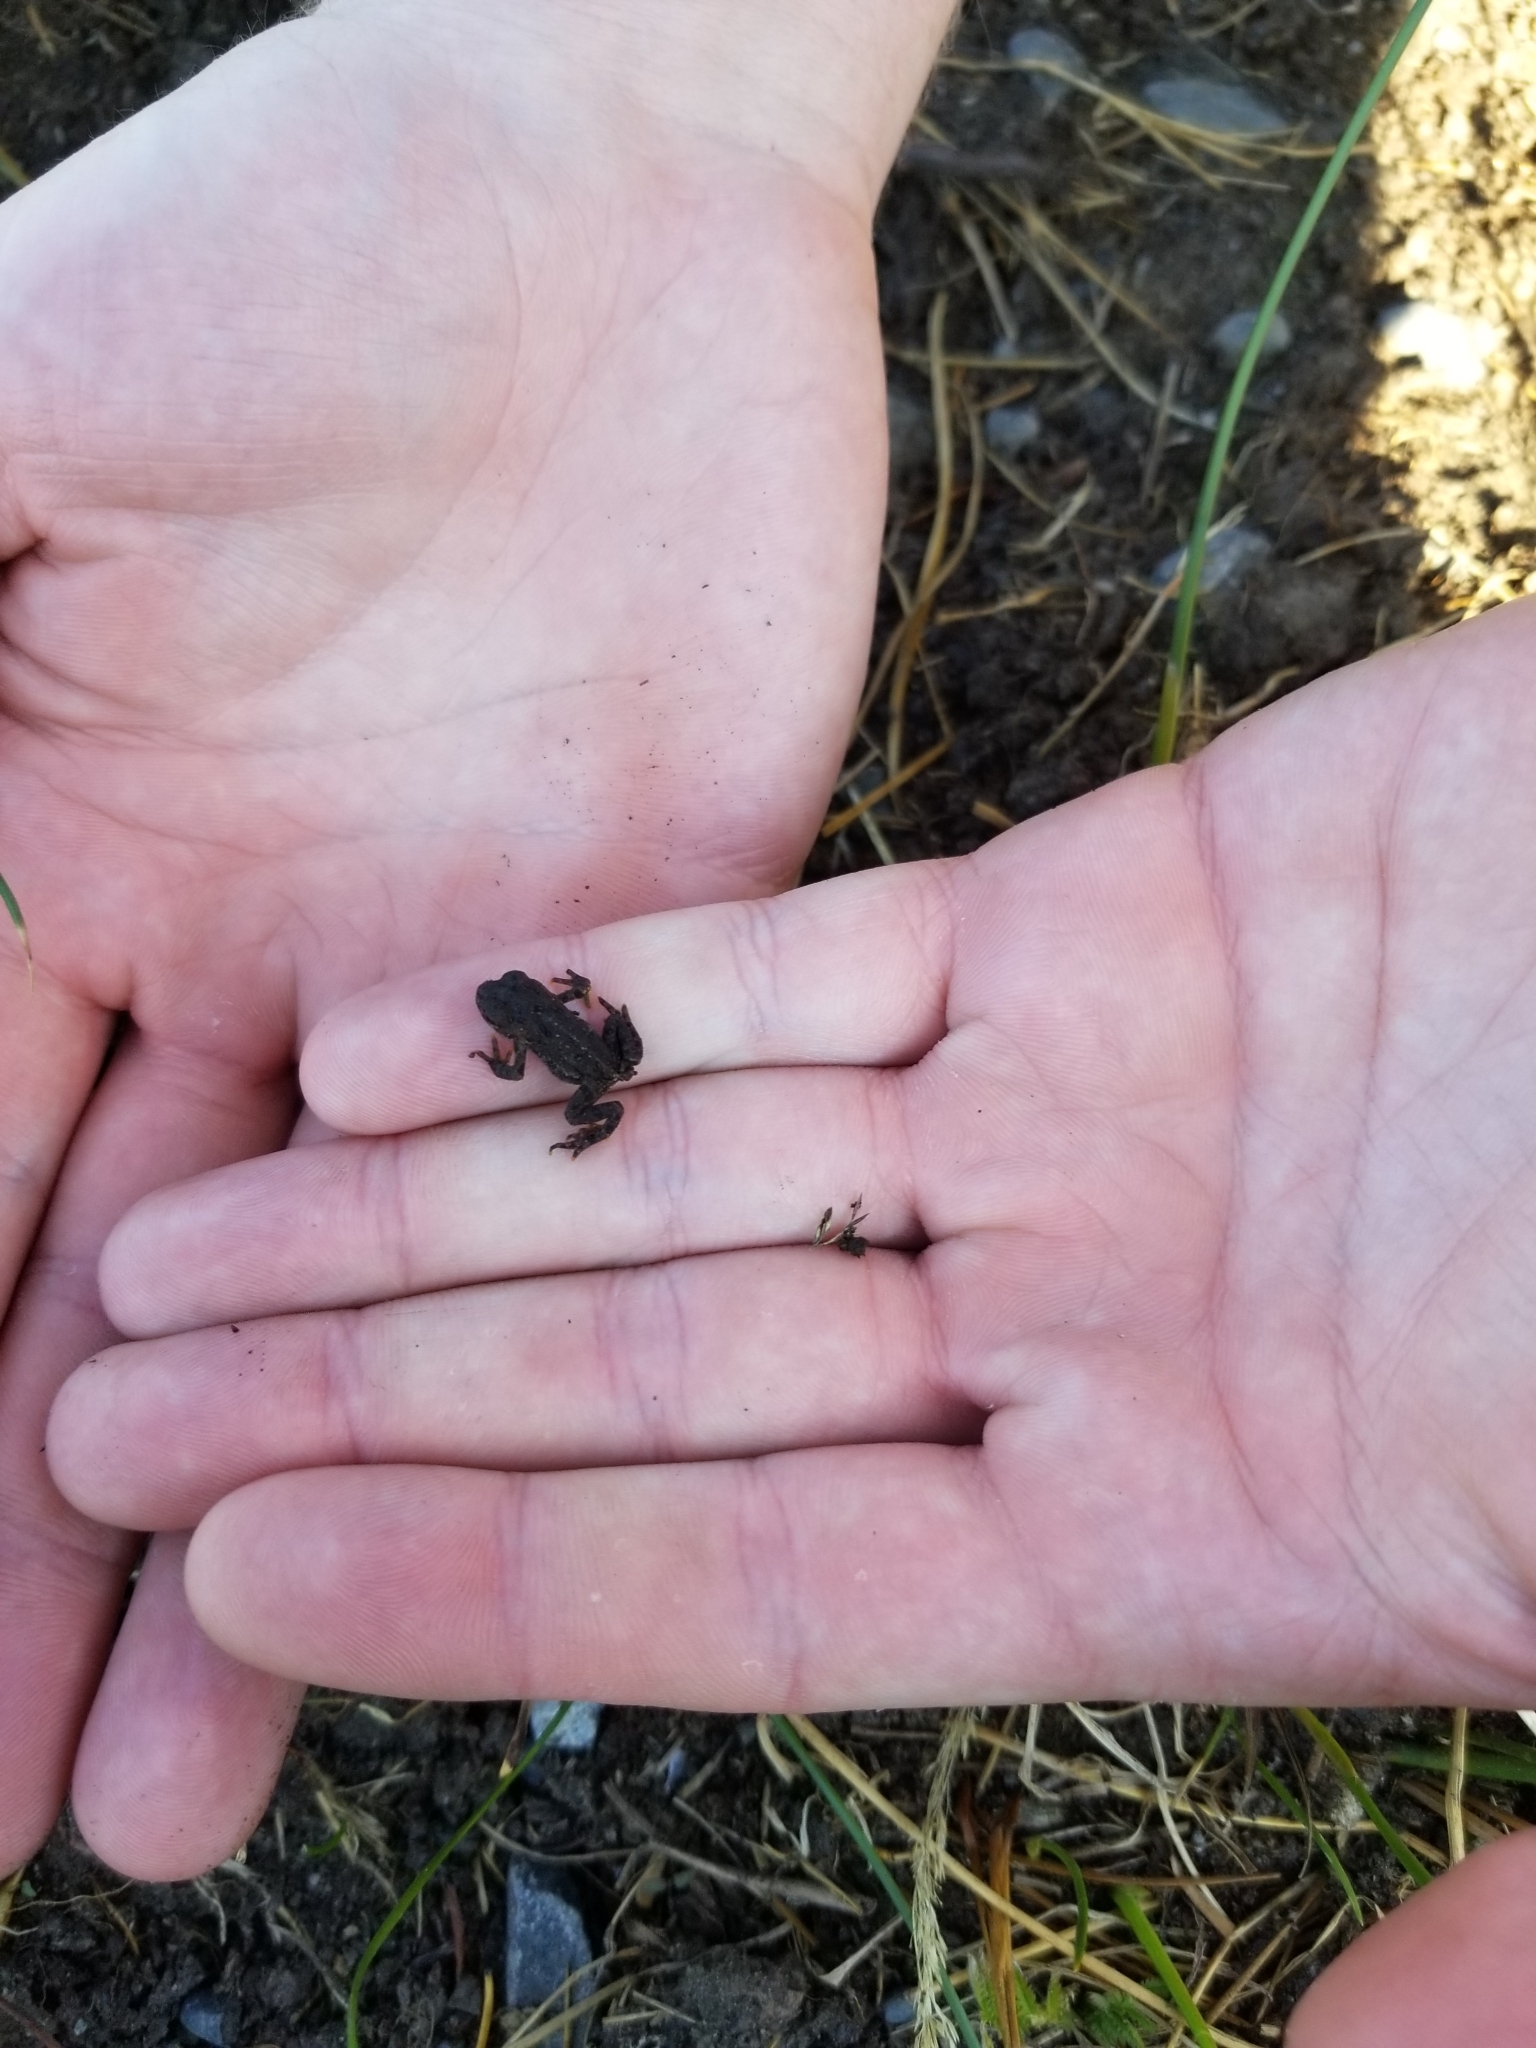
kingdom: Animalia
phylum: Chordata
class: Amphibia
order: Anura
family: Bufonidae
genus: Anaxyrus
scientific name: Anaxyrus boreas
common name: Western toad
